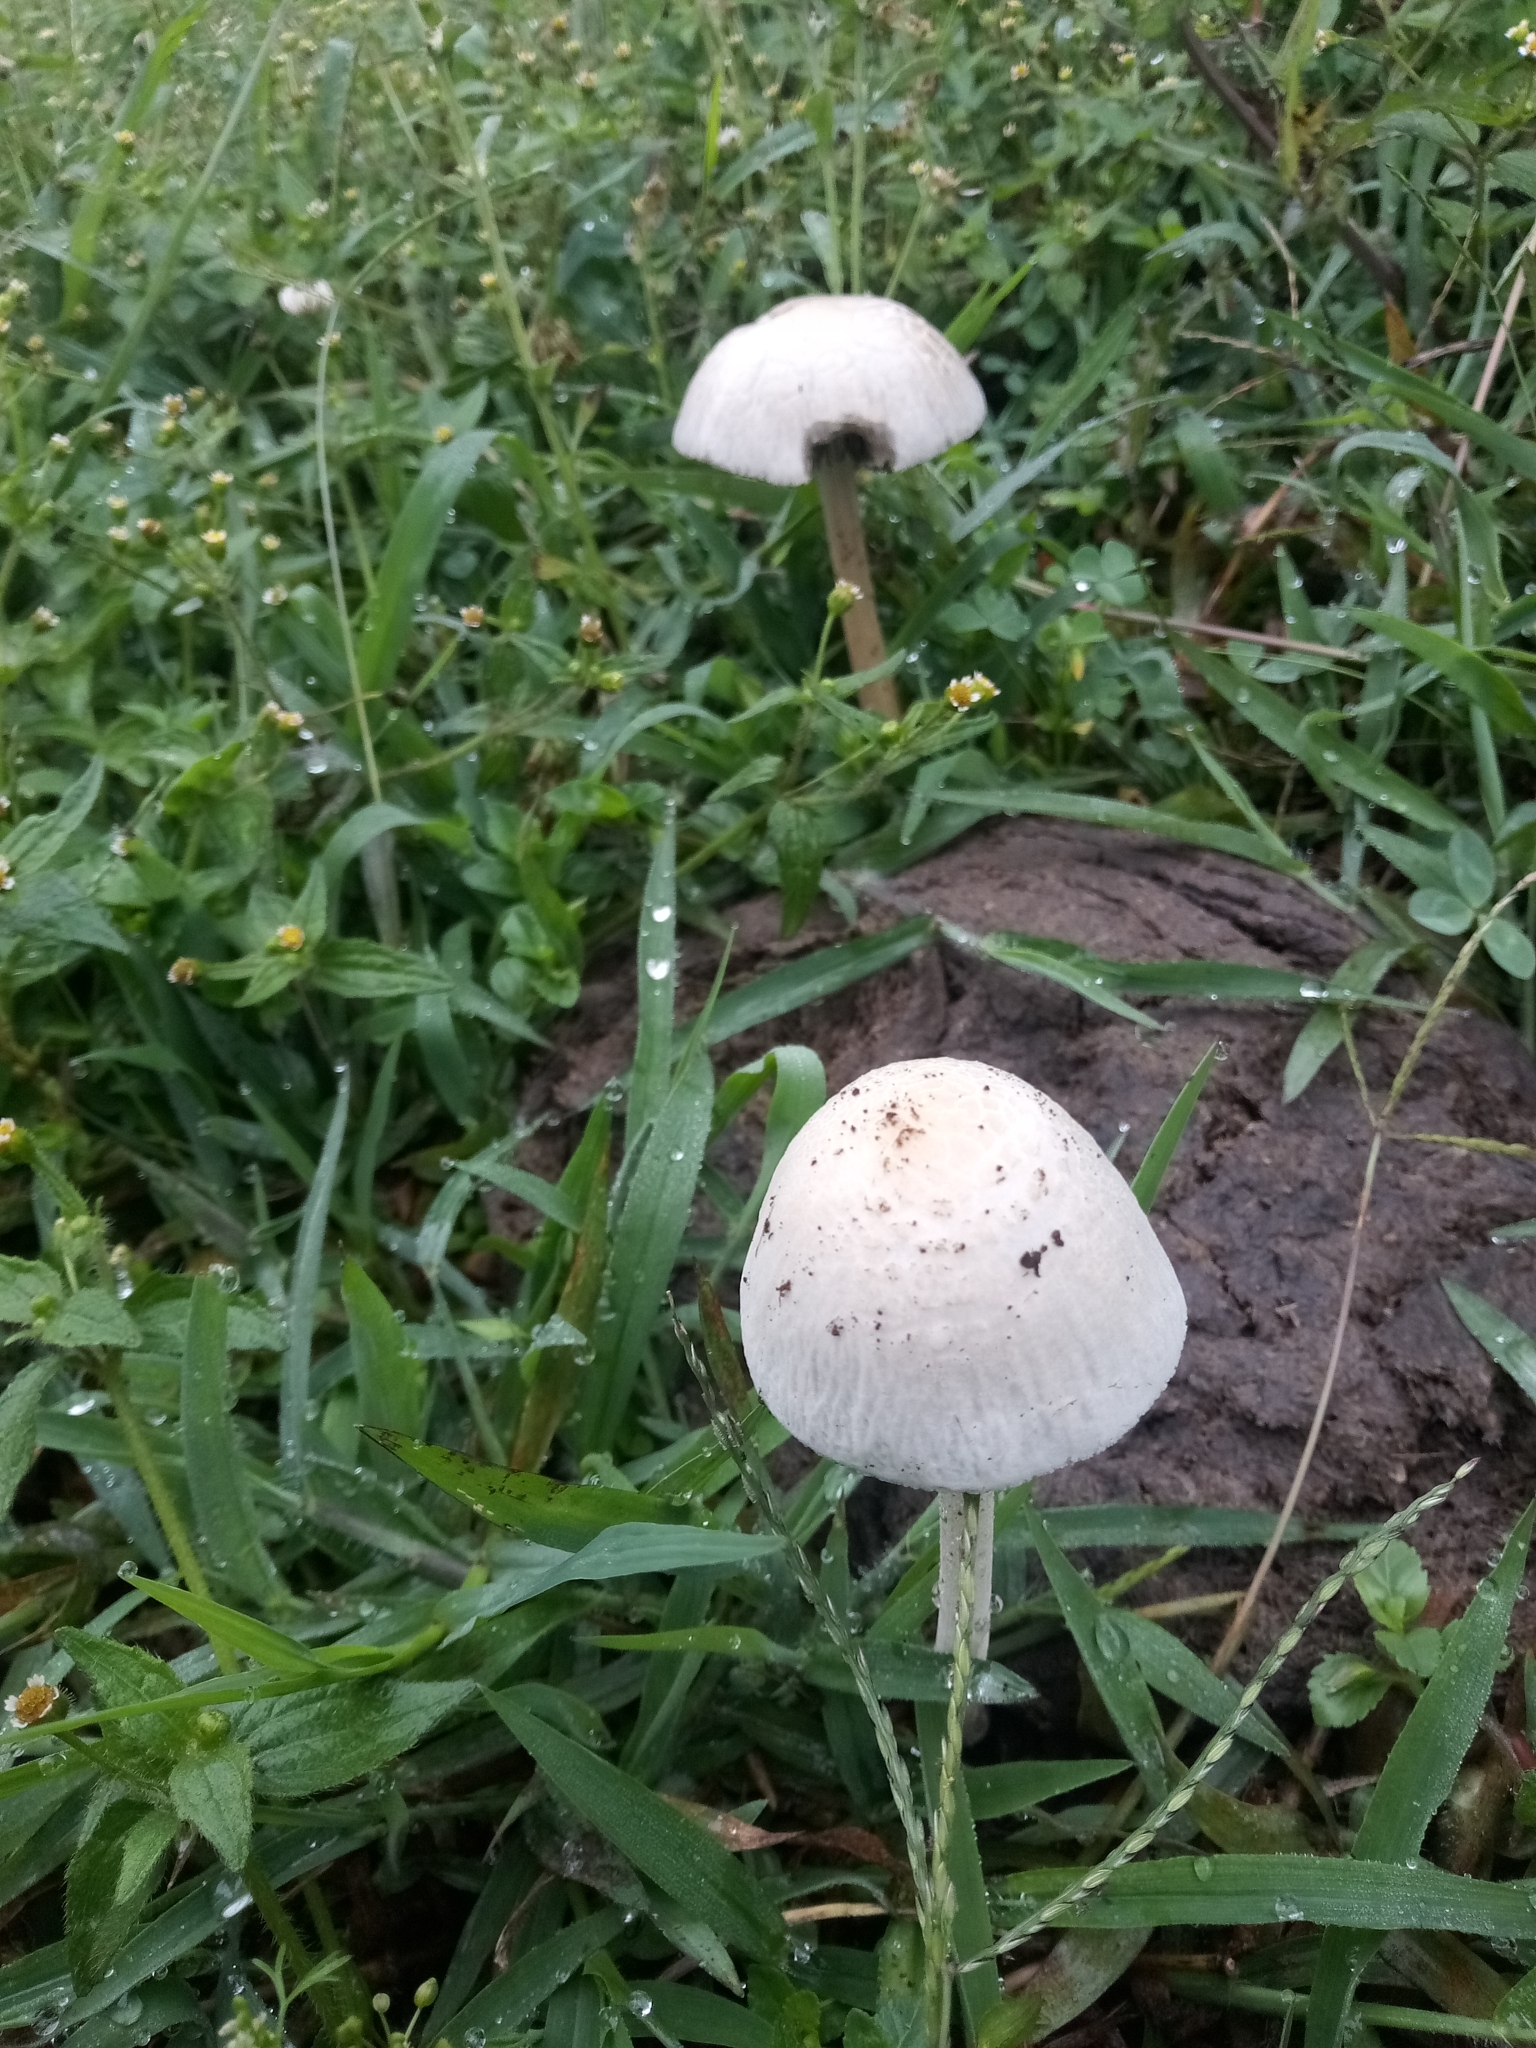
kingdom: Fungi
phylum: Basidiomycota
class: Agaricomycetes
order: Agaricales
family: Bolbitiaceae
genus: Panaeolus
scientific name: Panaeolus antillarum
